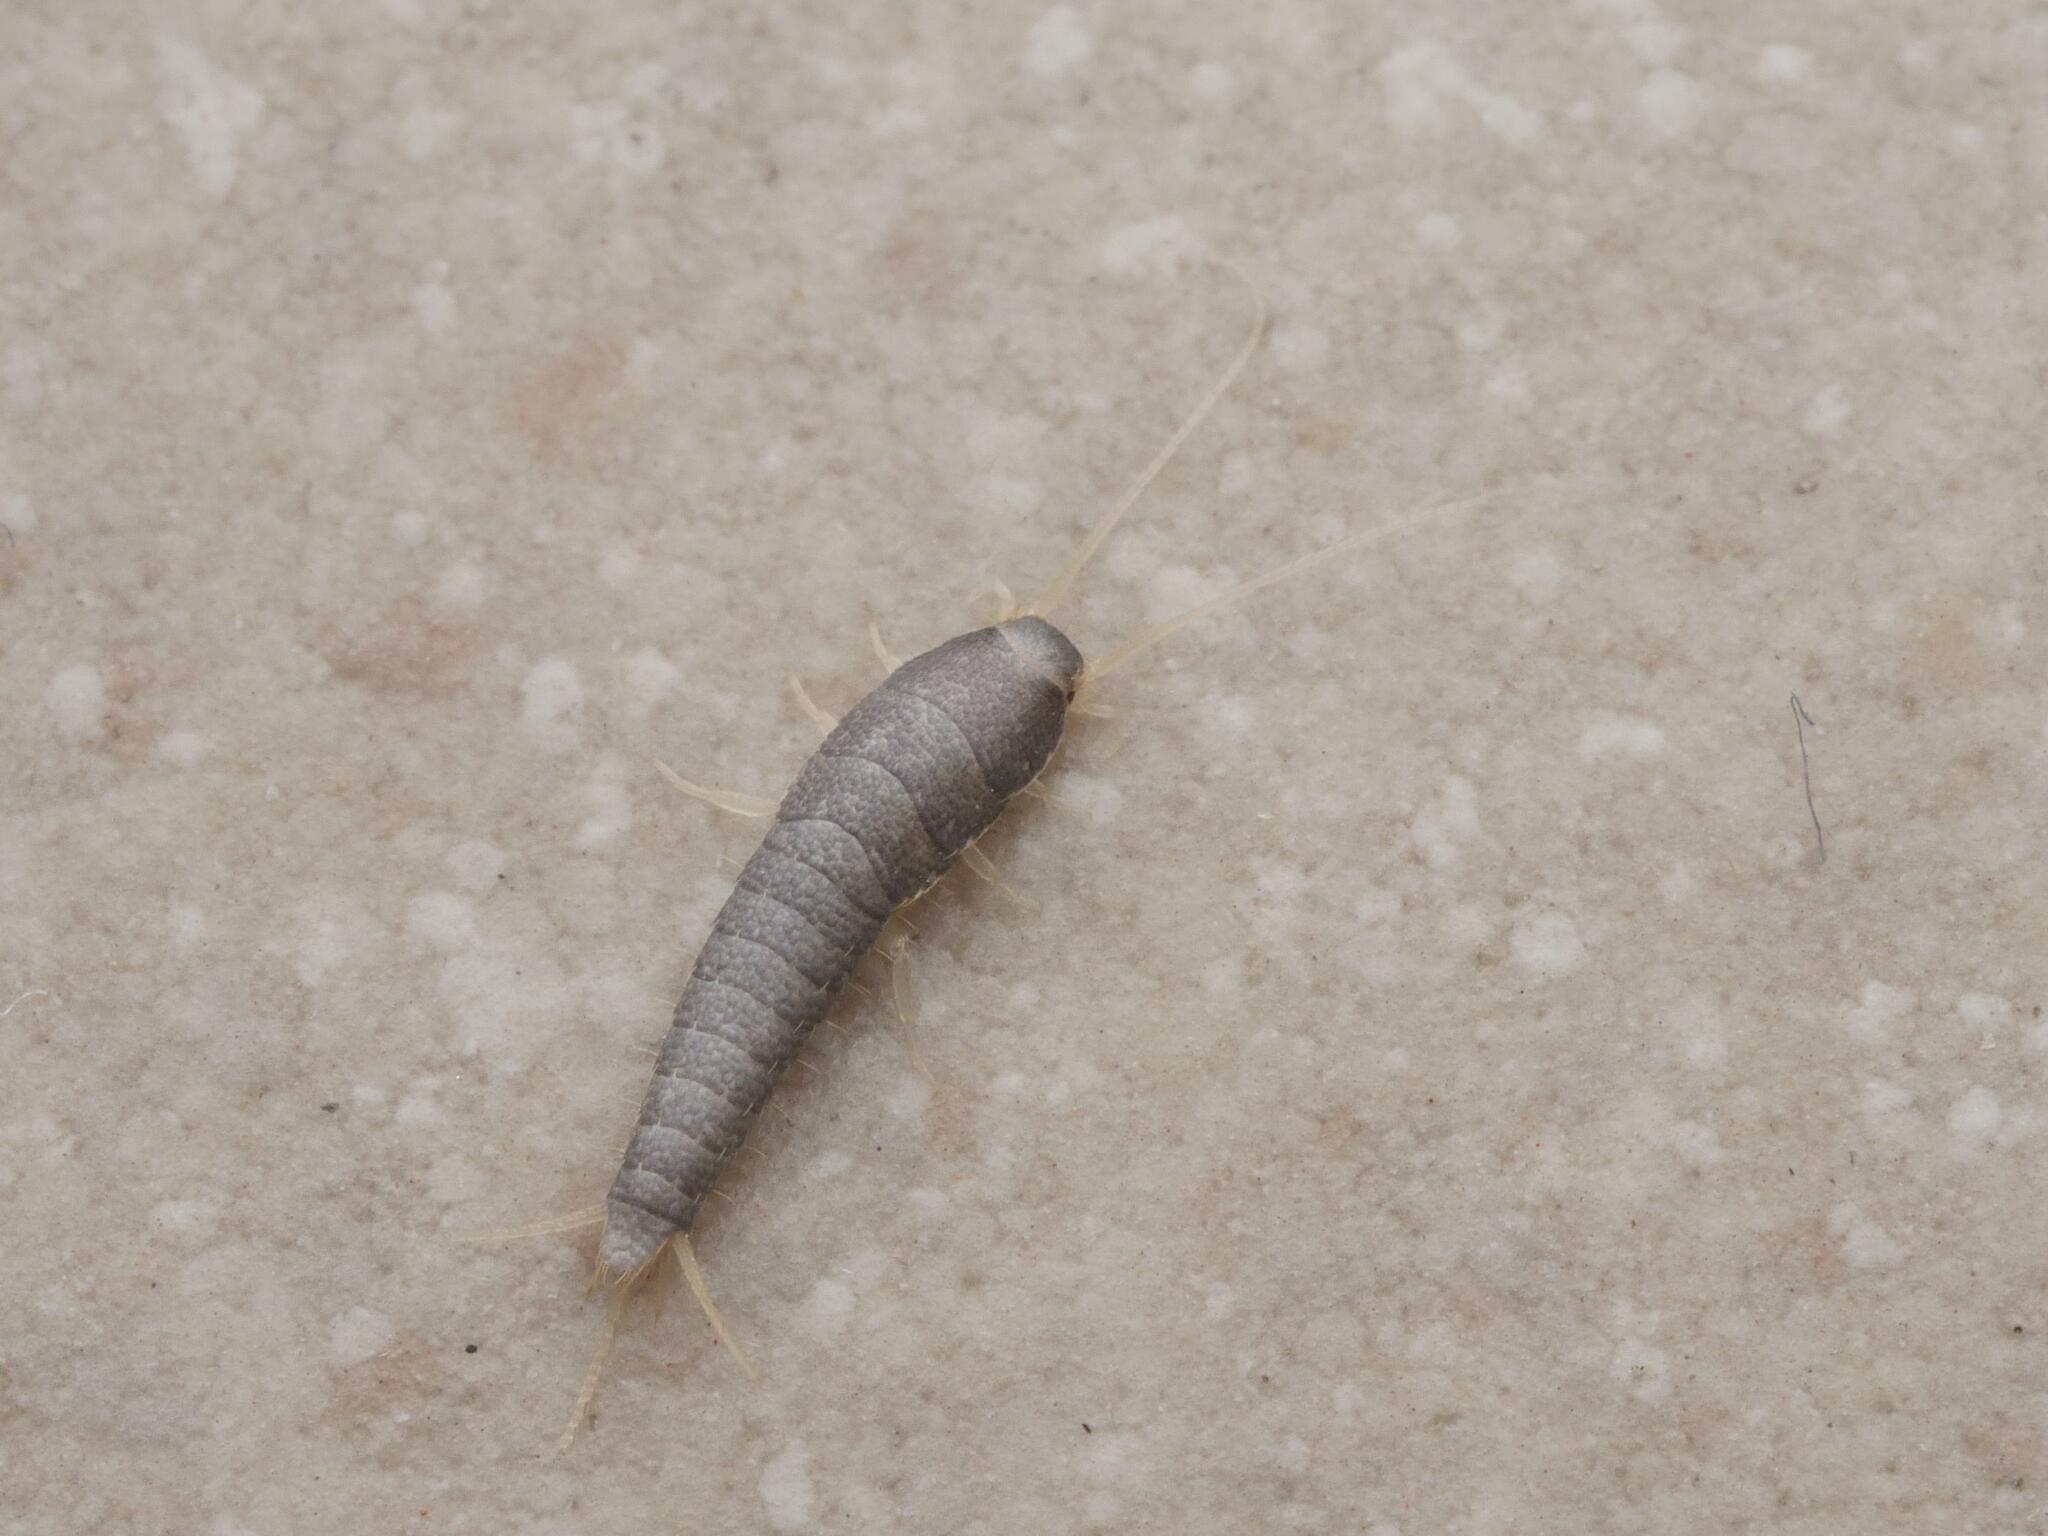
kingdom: Animalia
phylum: Arthropoda
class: Insecta
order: Zygentoma
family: Lepismatidae
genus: Lepisma
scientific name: Lepisma saccharinum
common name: Silverfish
